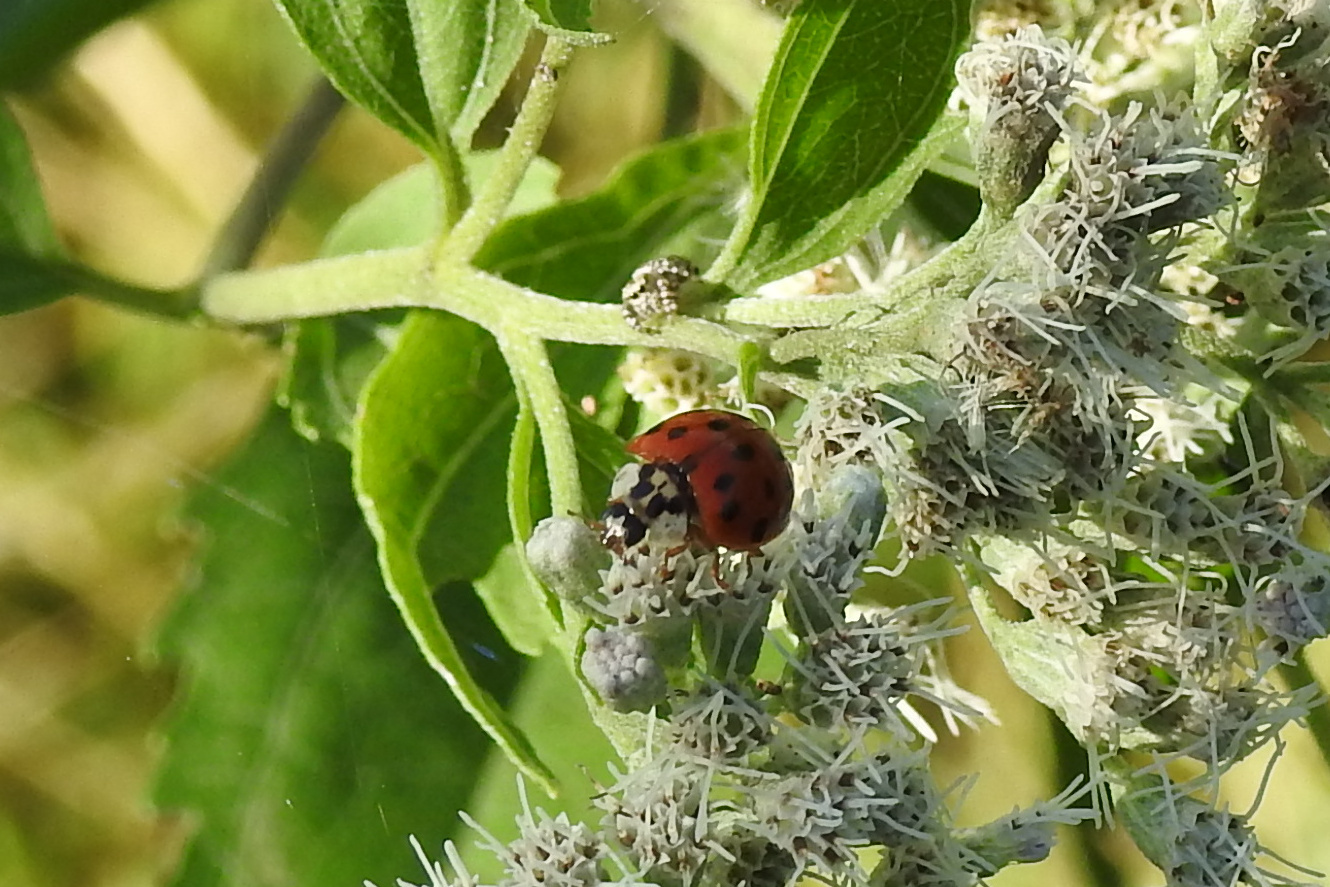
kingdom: Animalia
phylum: Arthropoda
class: Insecta
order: Coleoptera
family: Coccinellidae
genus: Harmonia
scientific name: Harmonia axyridis
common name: Harlequin ladybird
